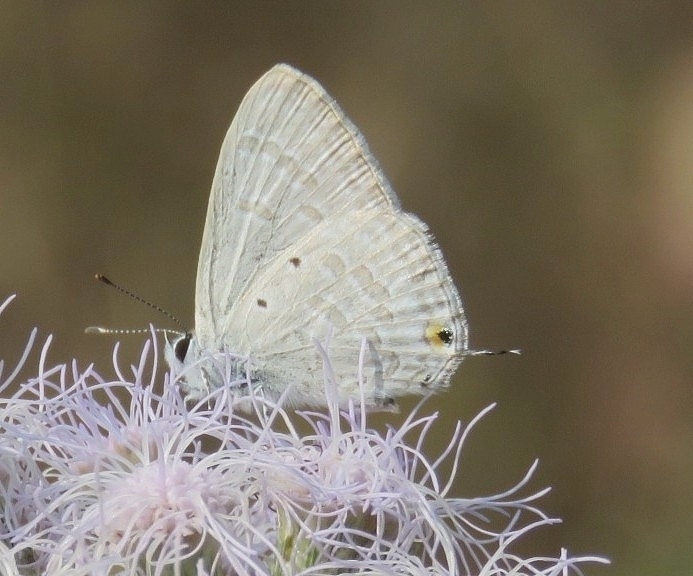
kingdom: Animalia
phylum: Arthropoda
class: Insecta
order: Lepidoptera
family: Lycaenidae
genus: Catochrysops
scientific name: Catochrysops strabo
